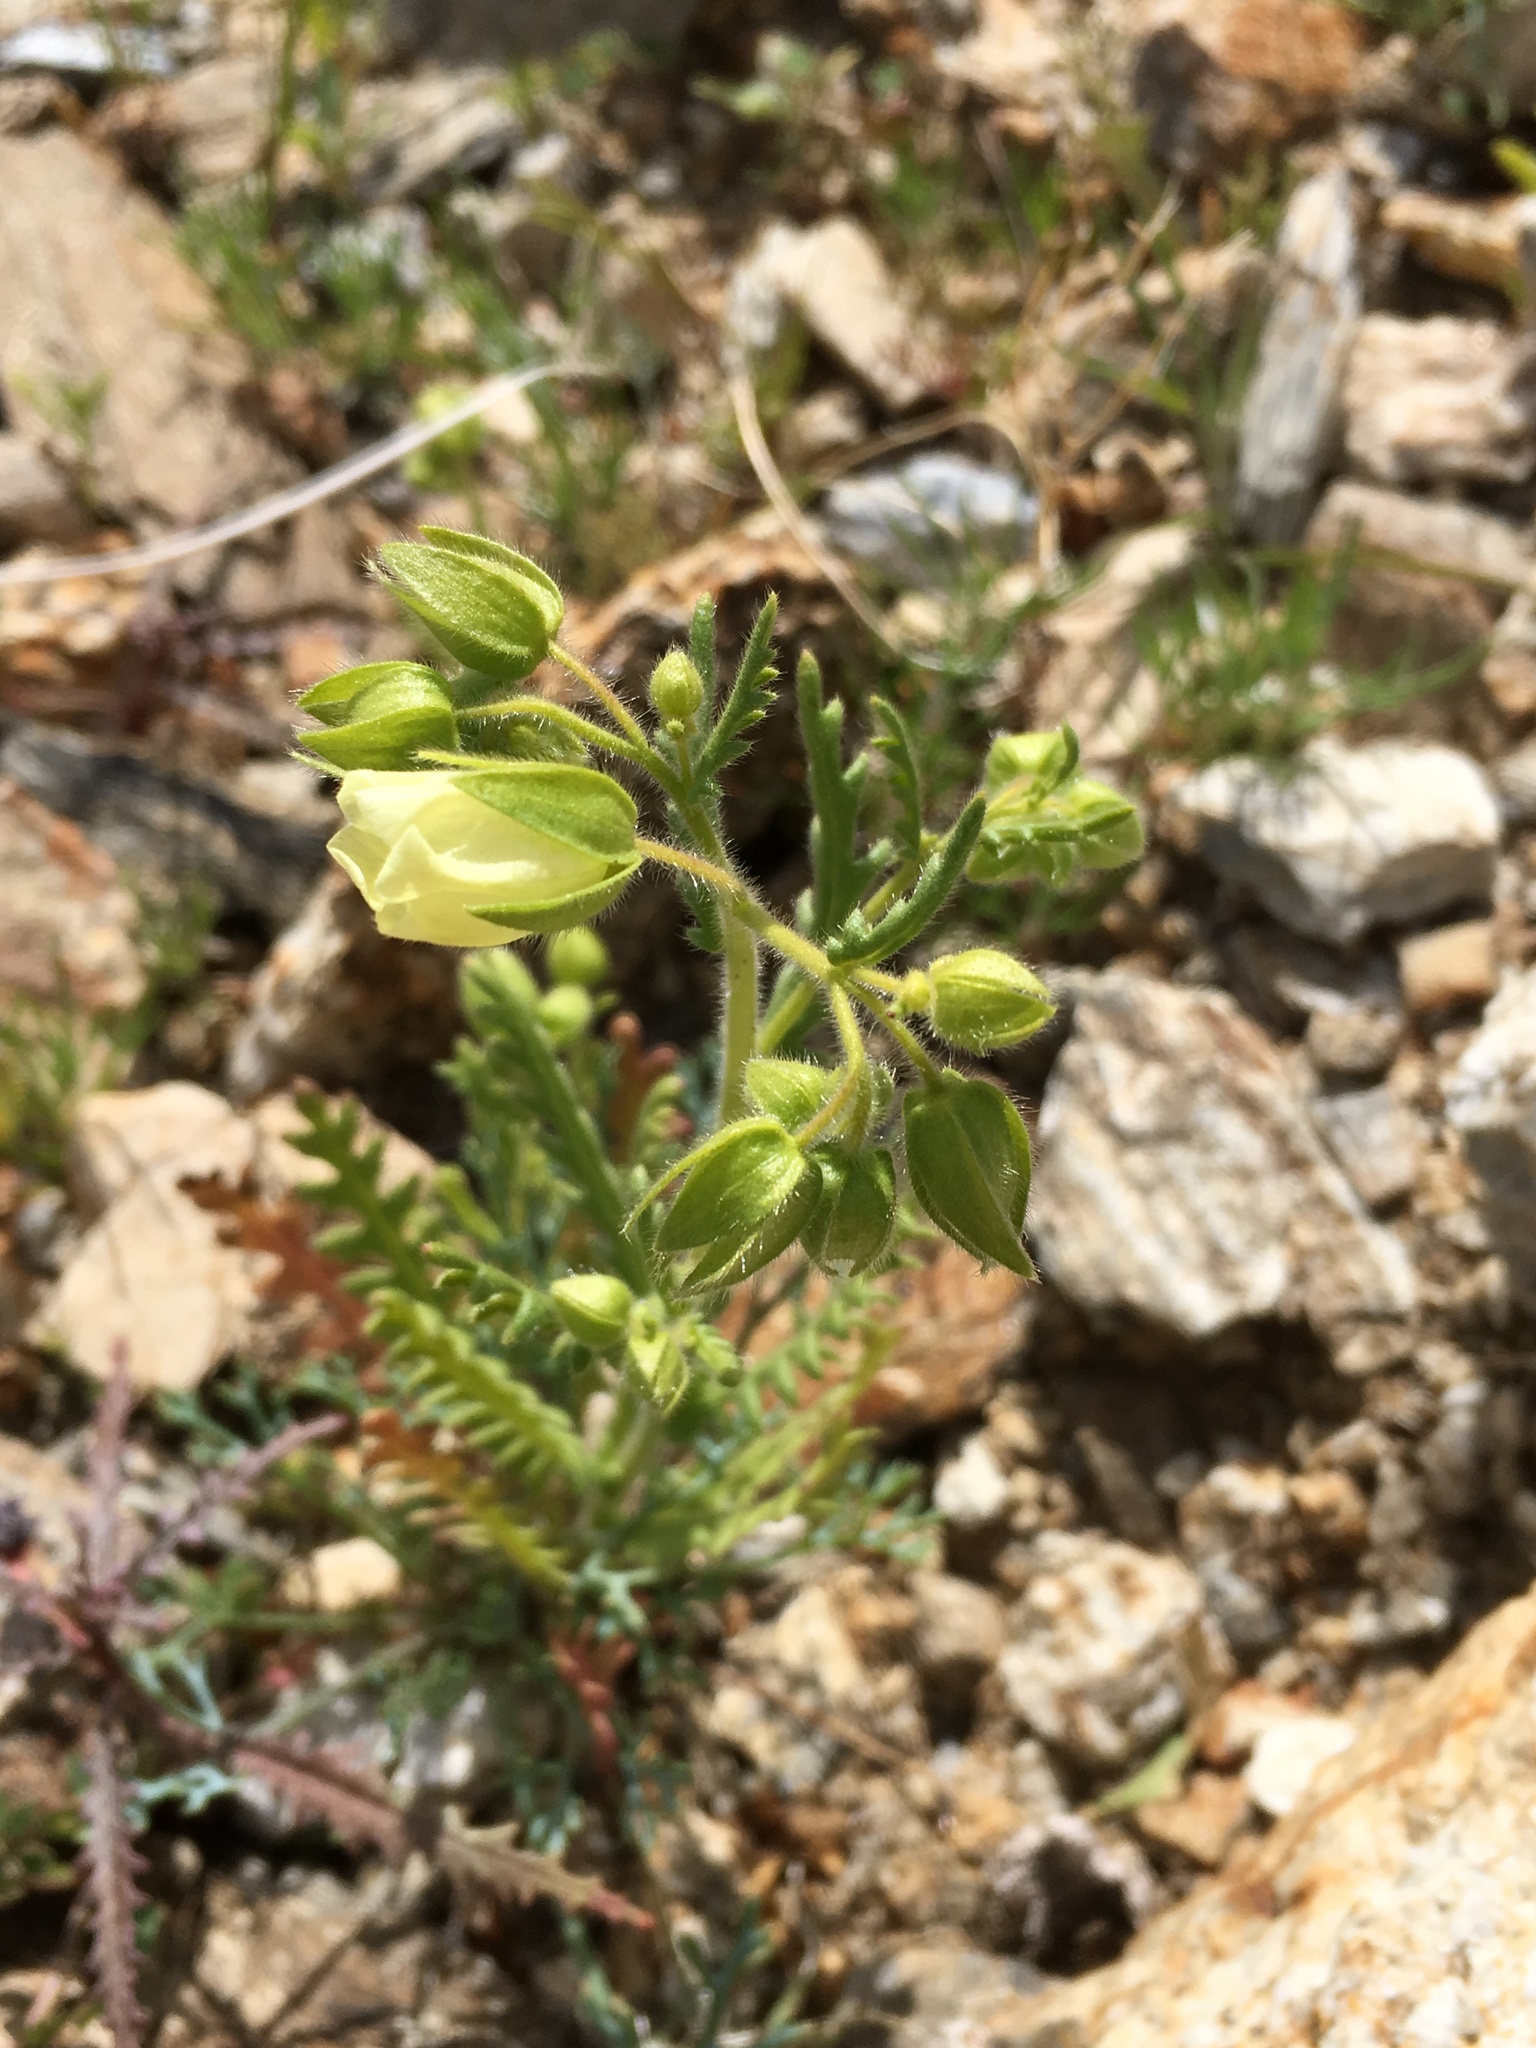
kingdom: Plantae
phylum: Tracheophyta
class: Magnoliopsida
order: Boraginales
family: Hydrophyllaceae
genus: Emmenanthe
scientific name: Emmenanthe penduliflora
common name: Whispering-bells
